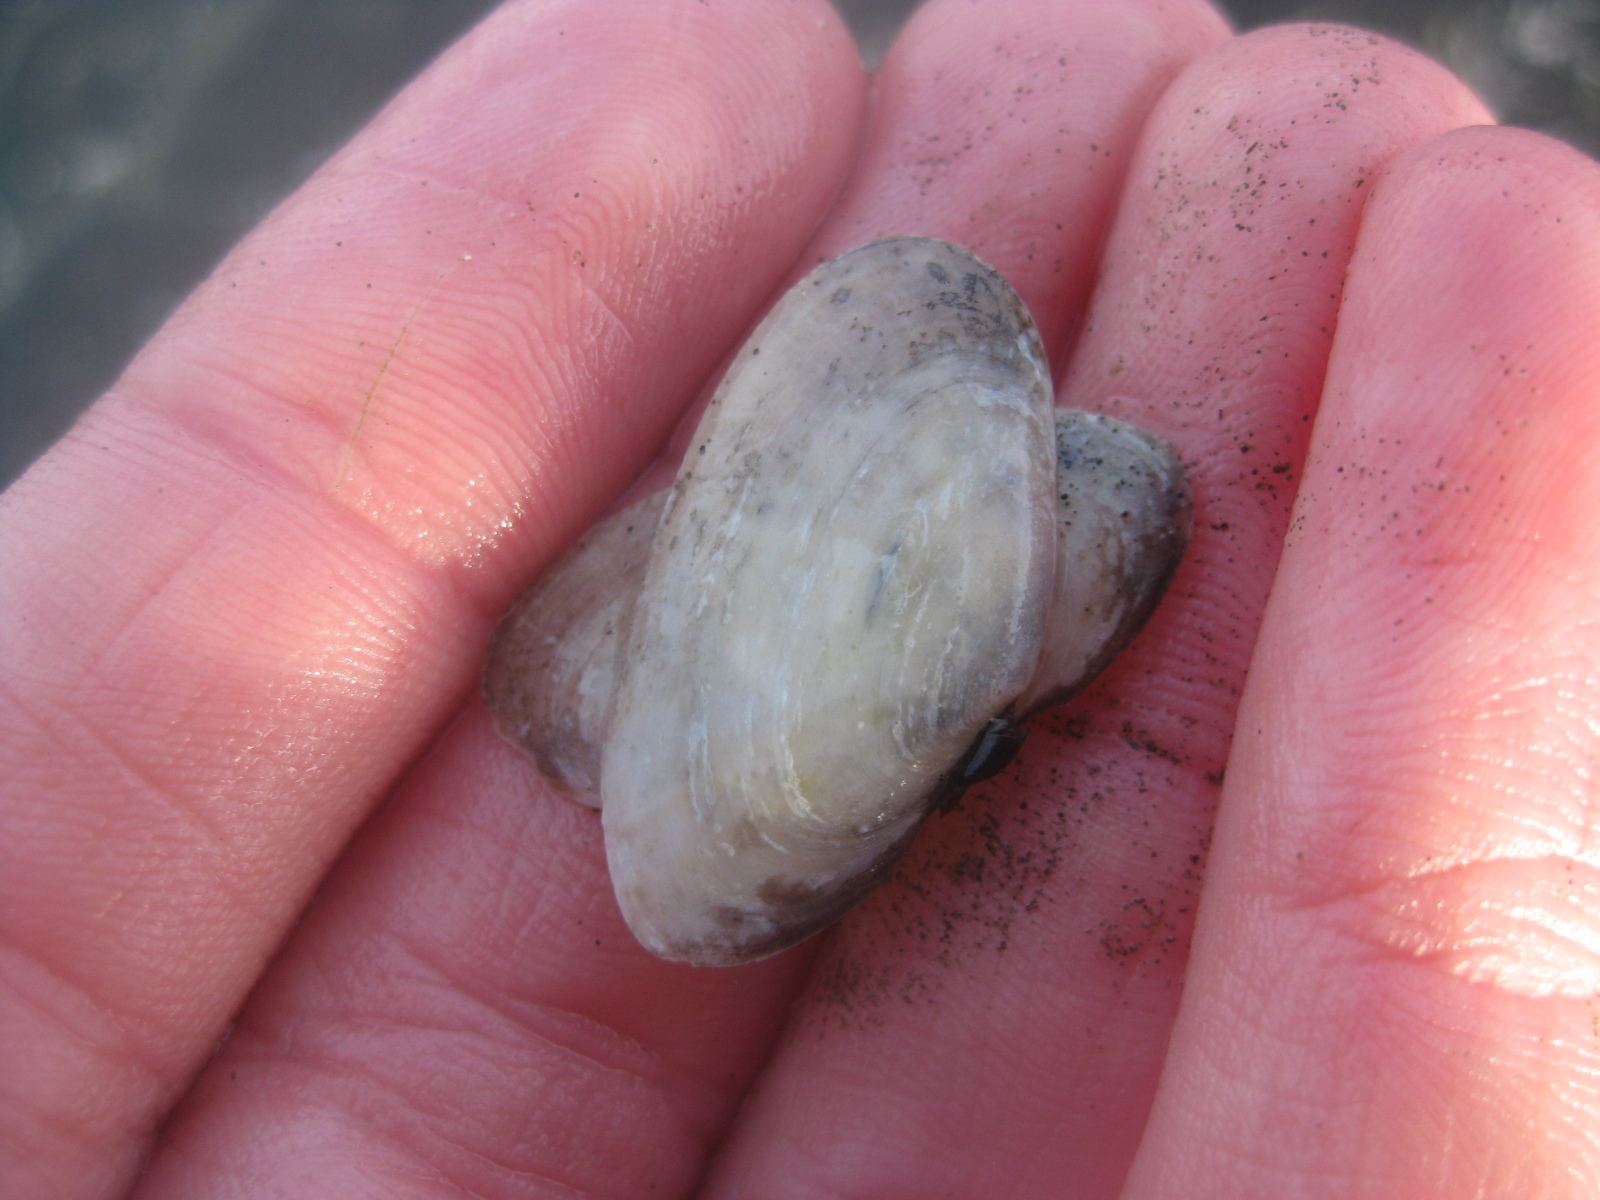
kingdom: Animalia
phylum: Mollusca
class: Bivalvia
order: Cardiida
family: Psammobiidae
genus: Hiatula
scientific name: Hiatula siliquens
